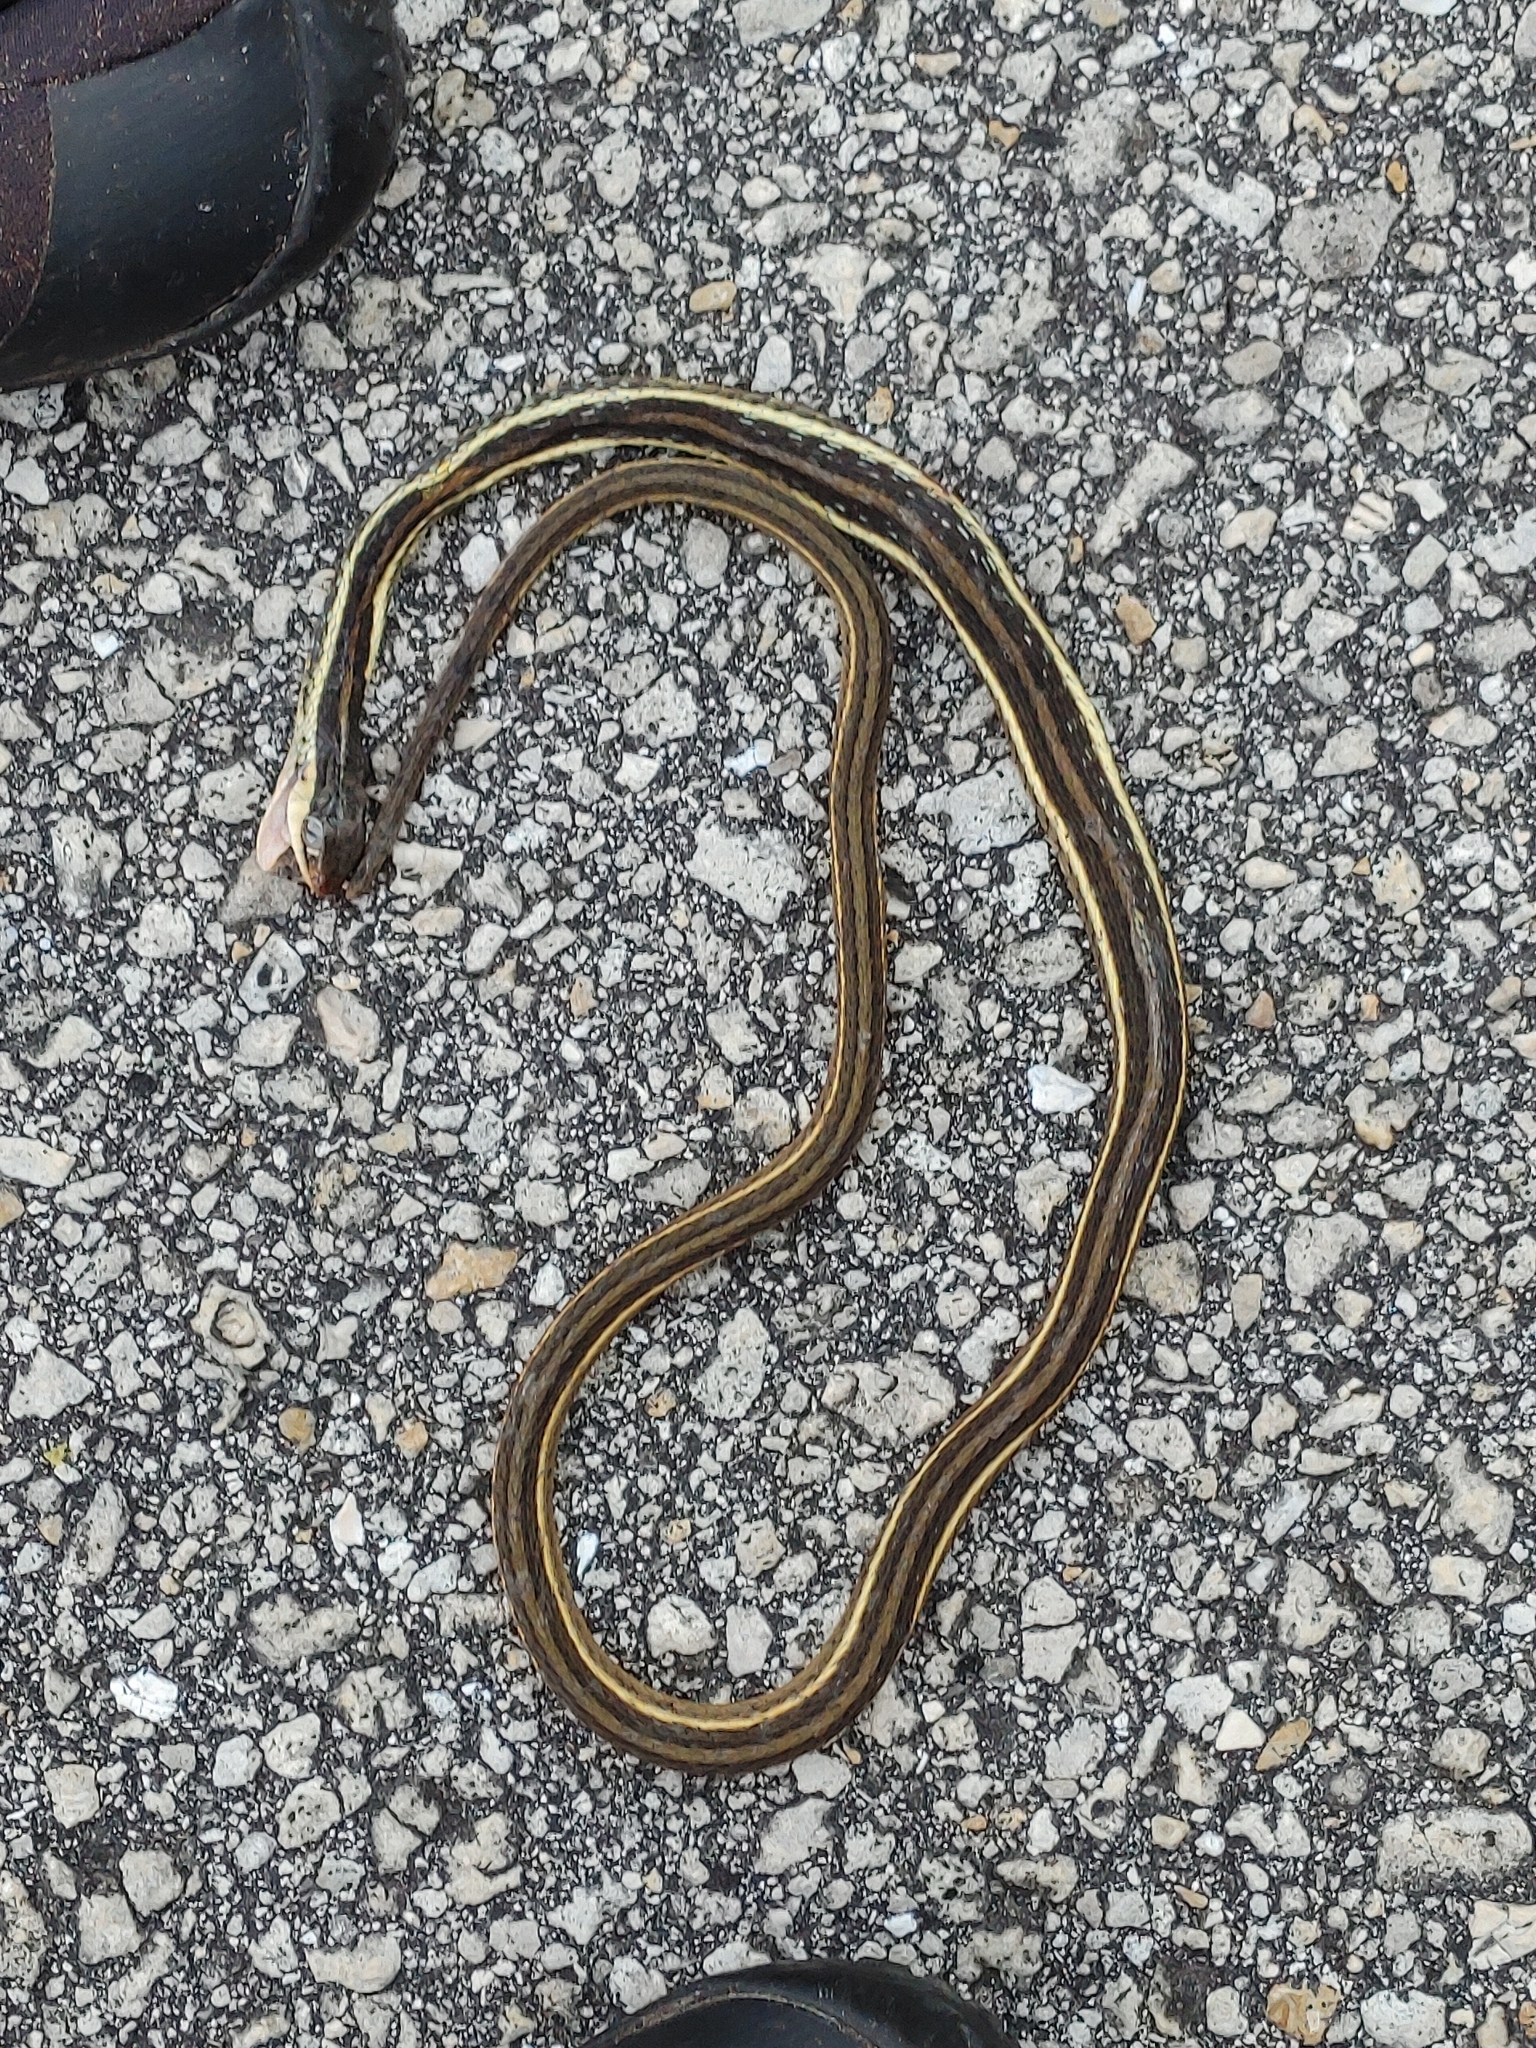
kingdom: Animalia
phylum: Chordata
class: Squamata
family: Colubridae
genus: Thamnophis
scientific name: Thamnophis saurita
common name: Eastern ribbonsnake
